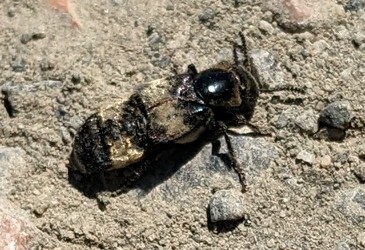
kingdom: Animalia
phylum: Arthropoda
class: Insecta
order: Coleoptera
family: Staphylinidae
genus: Creophilus
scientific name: Creophilus maxillosus
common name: Hairy rove beetle
